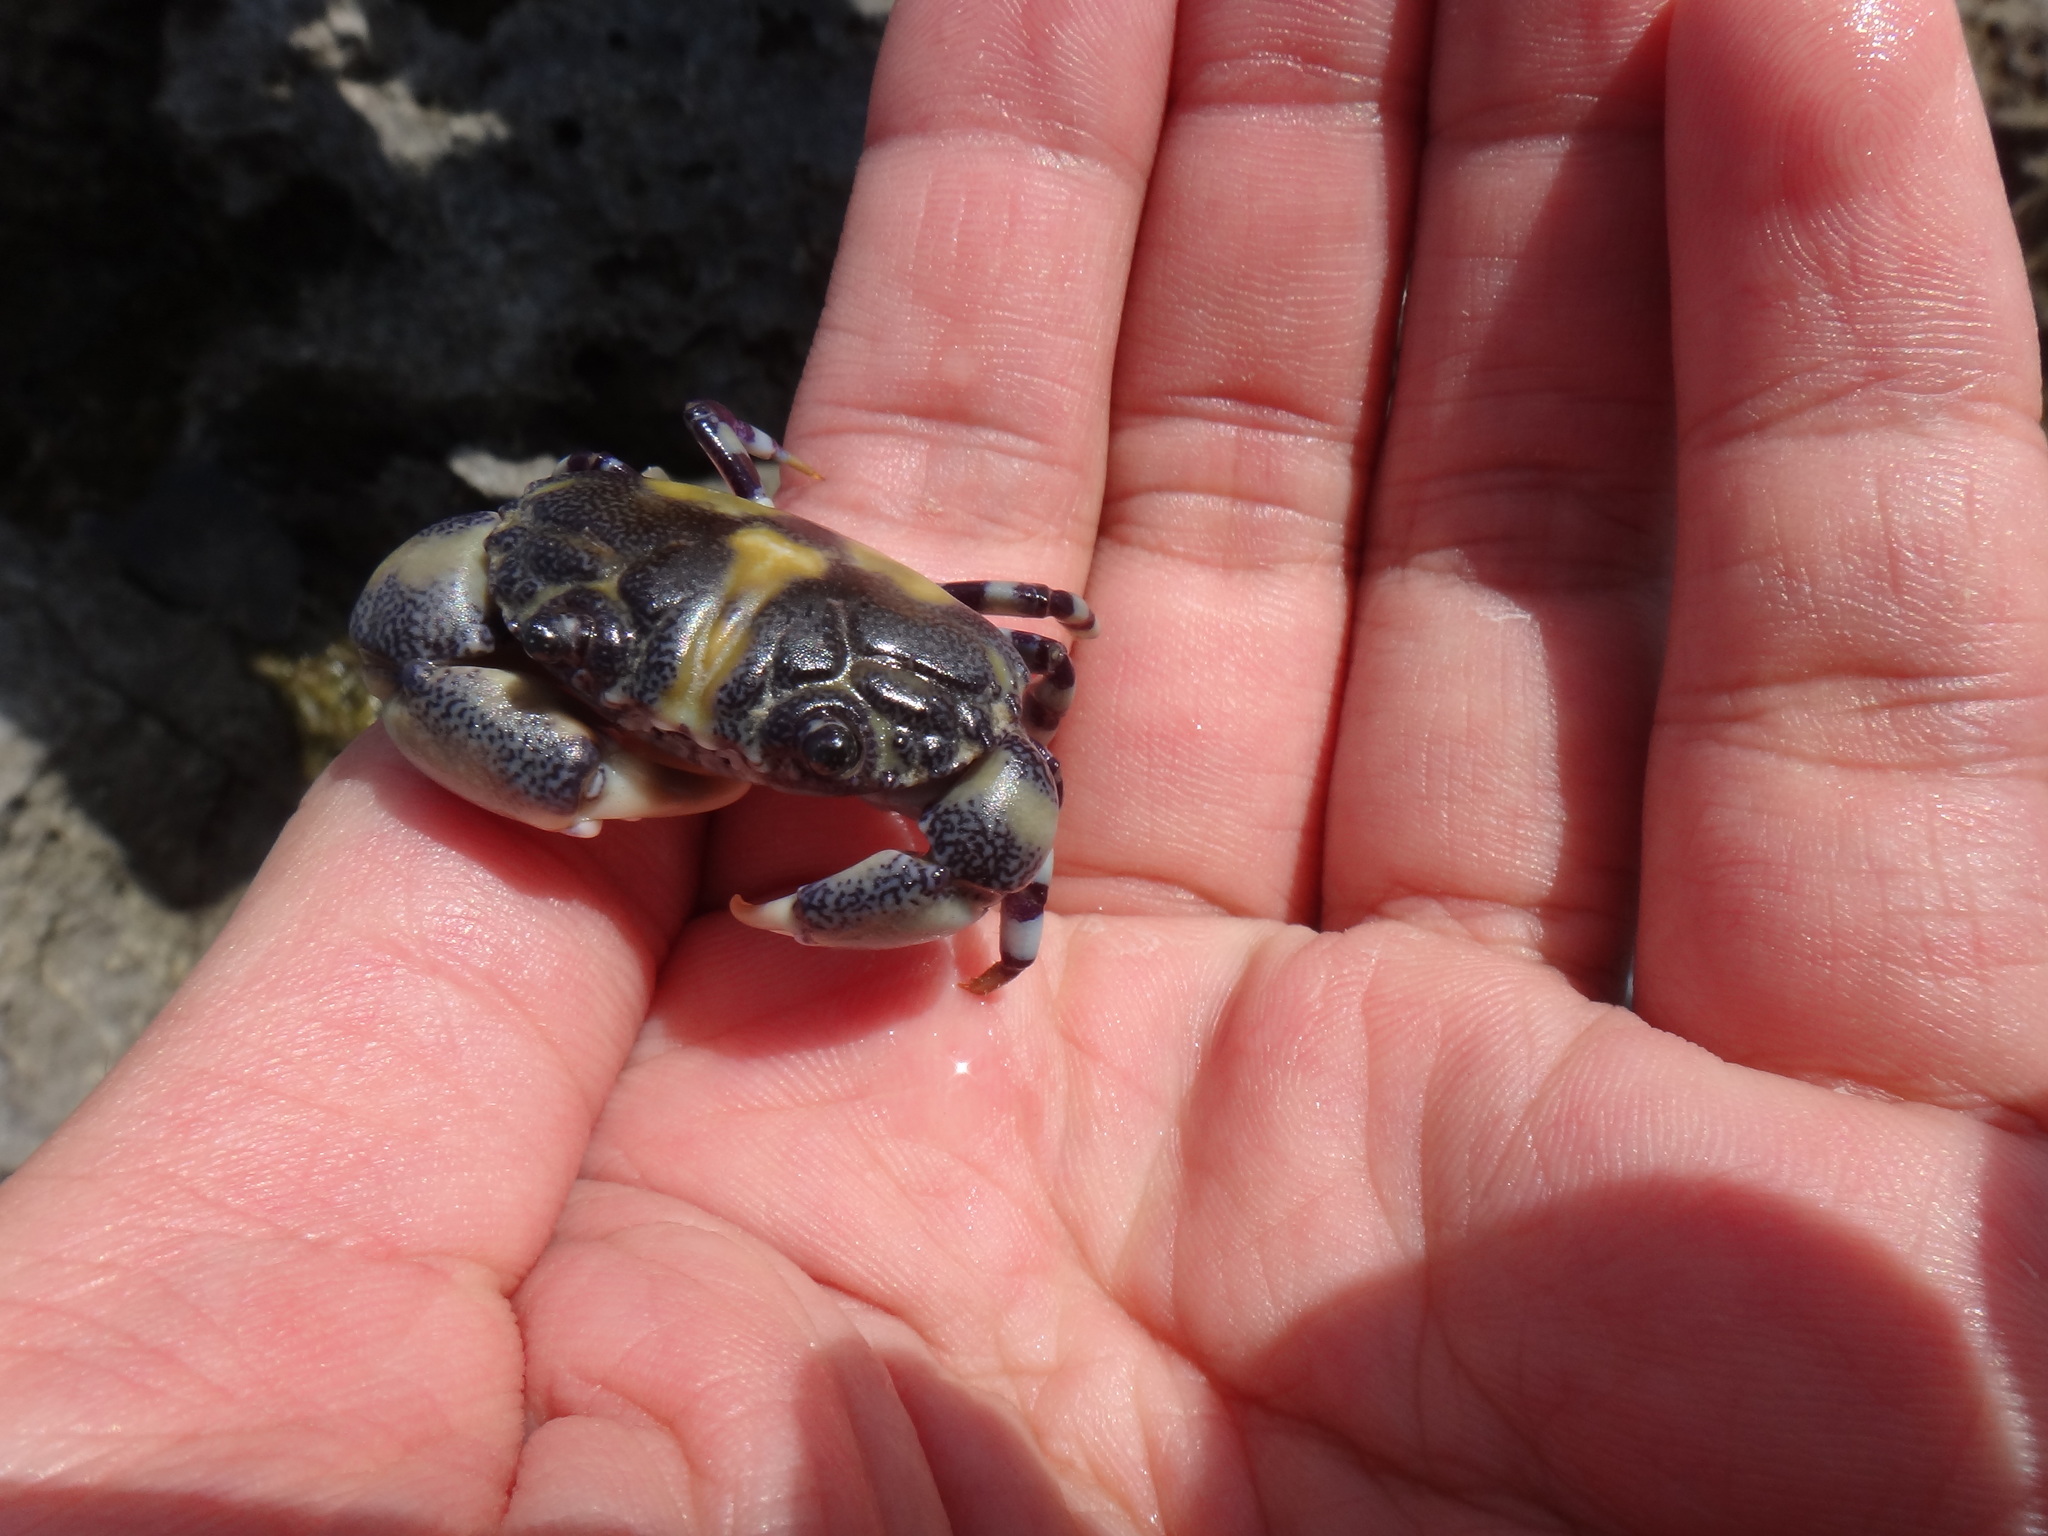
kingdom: Animalia
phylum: Arthropoda
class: Malacostraca
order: Decapoda
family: Oziidae
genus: Lydia
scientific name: Lydia annulipes
